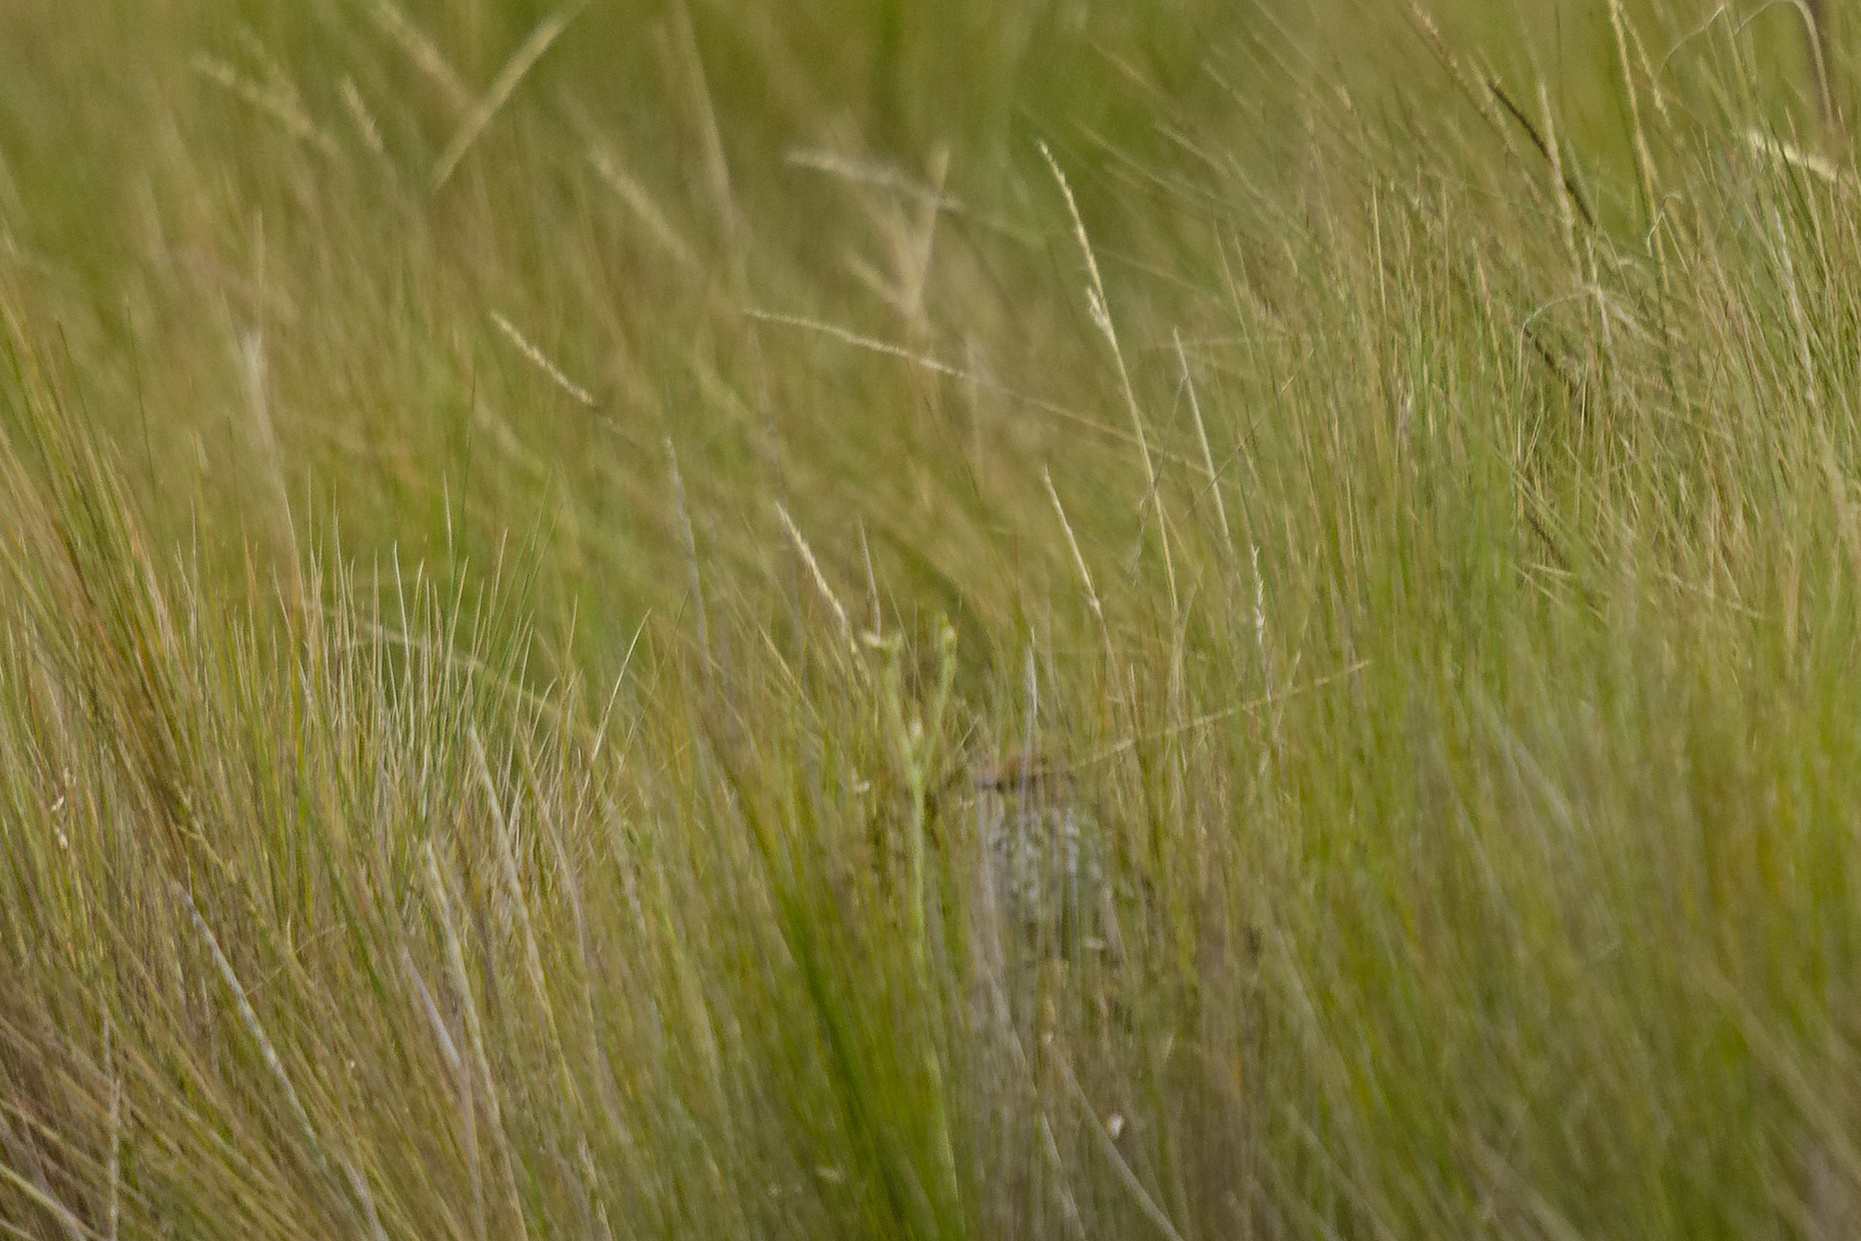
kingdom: Animalia
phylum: Chordata
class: Aves
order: Passeriformes
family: Furnariidae
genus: Asthenes
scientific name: Asthenes flammulata
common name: Many-striped canastero
